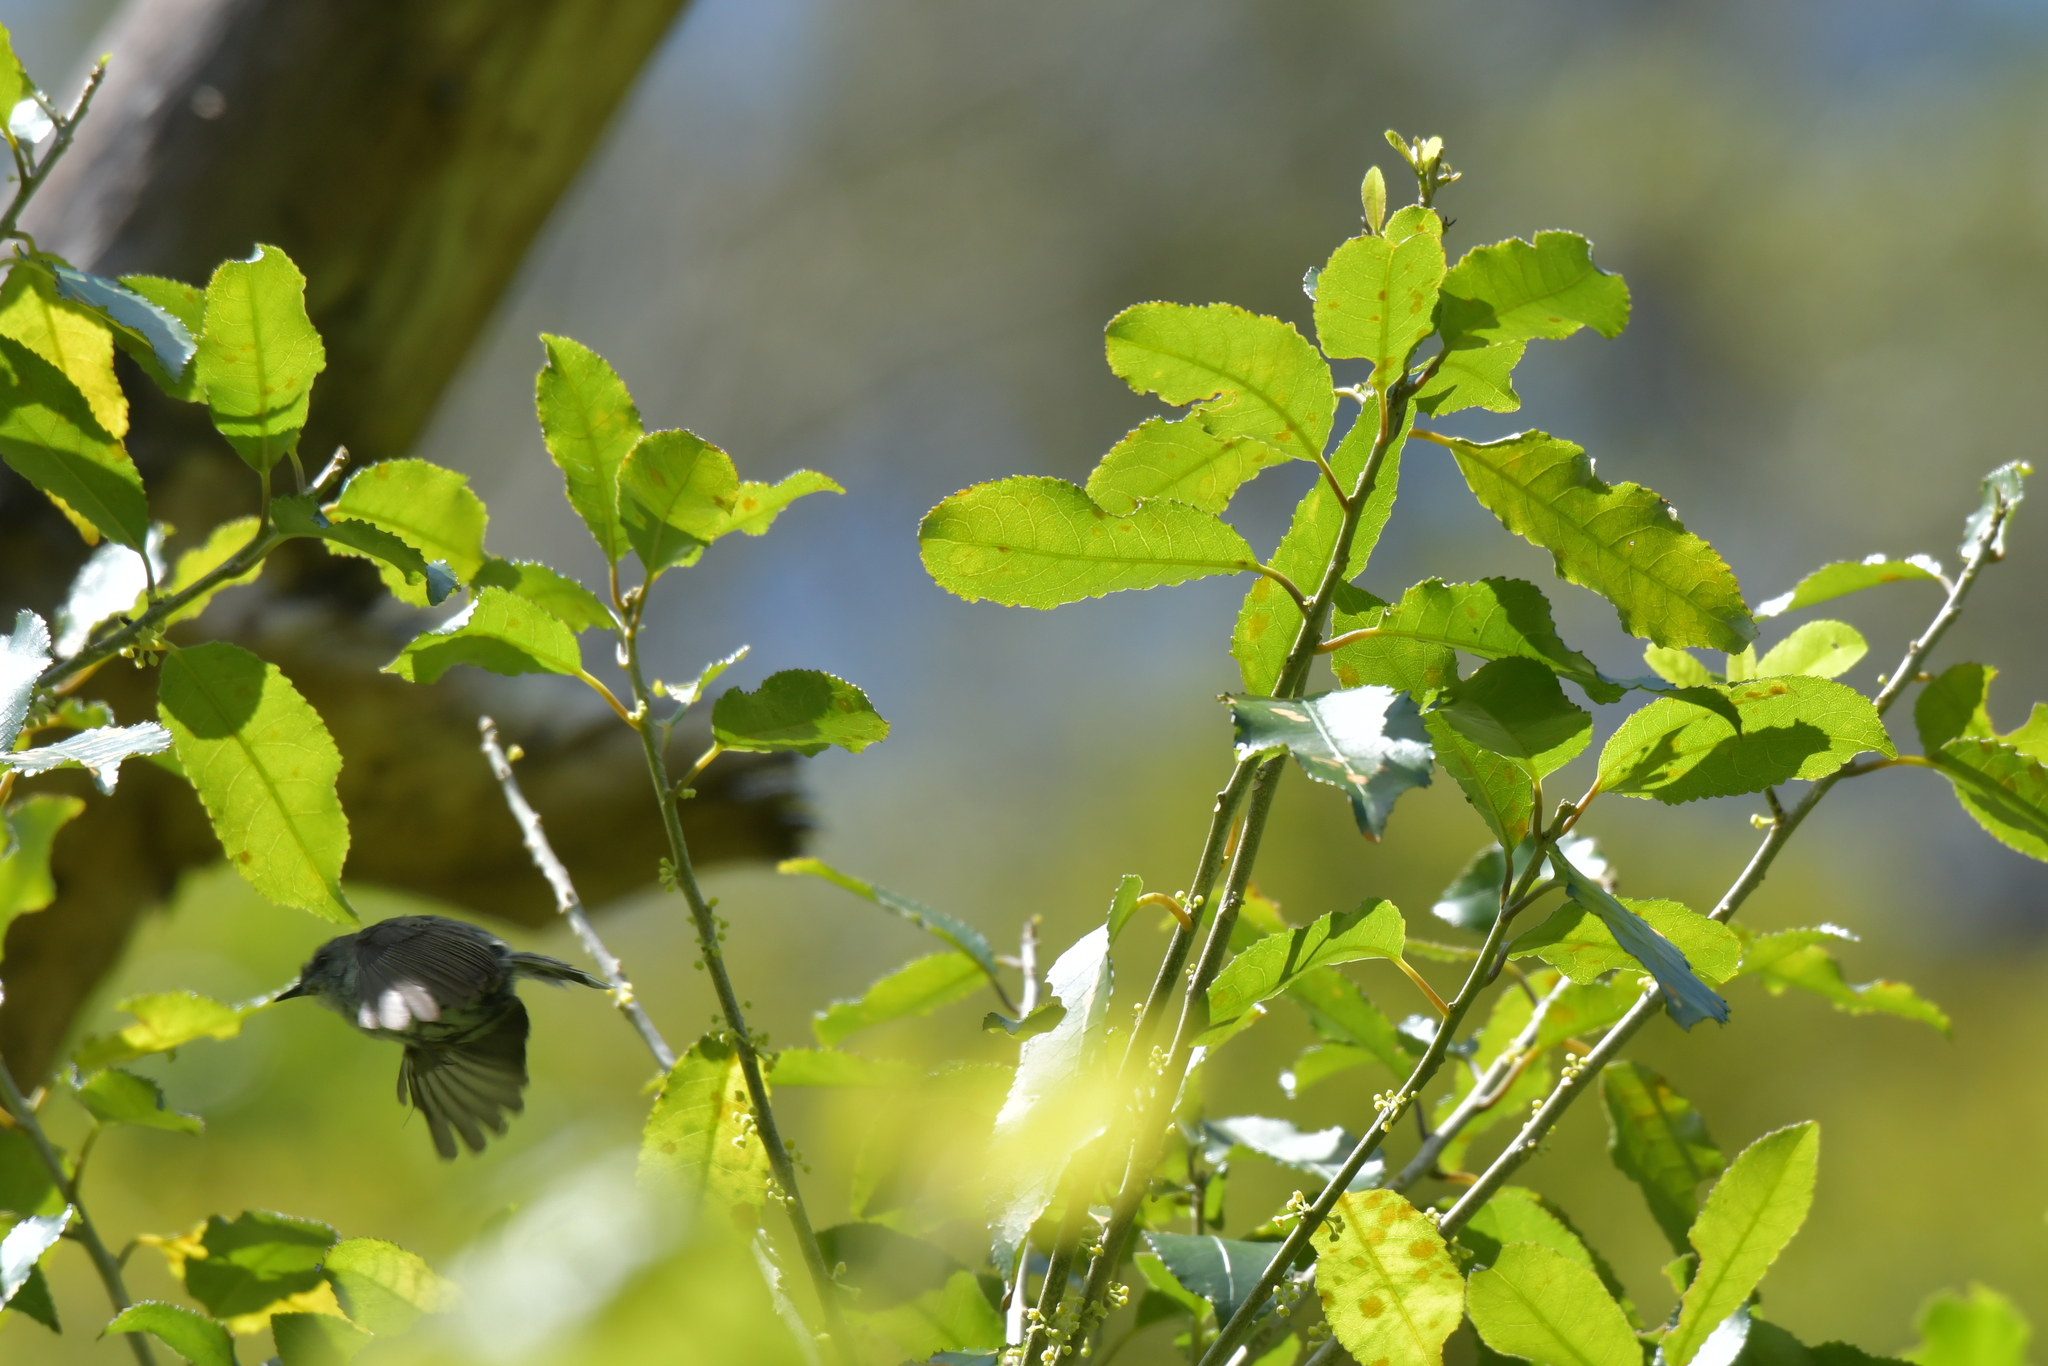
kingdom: Animalia
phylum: Chordata
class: Aves
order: Passeriformes
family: Acanthizidae
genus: Gerygone
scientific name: Gerygone igata
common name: Grey gerygone
